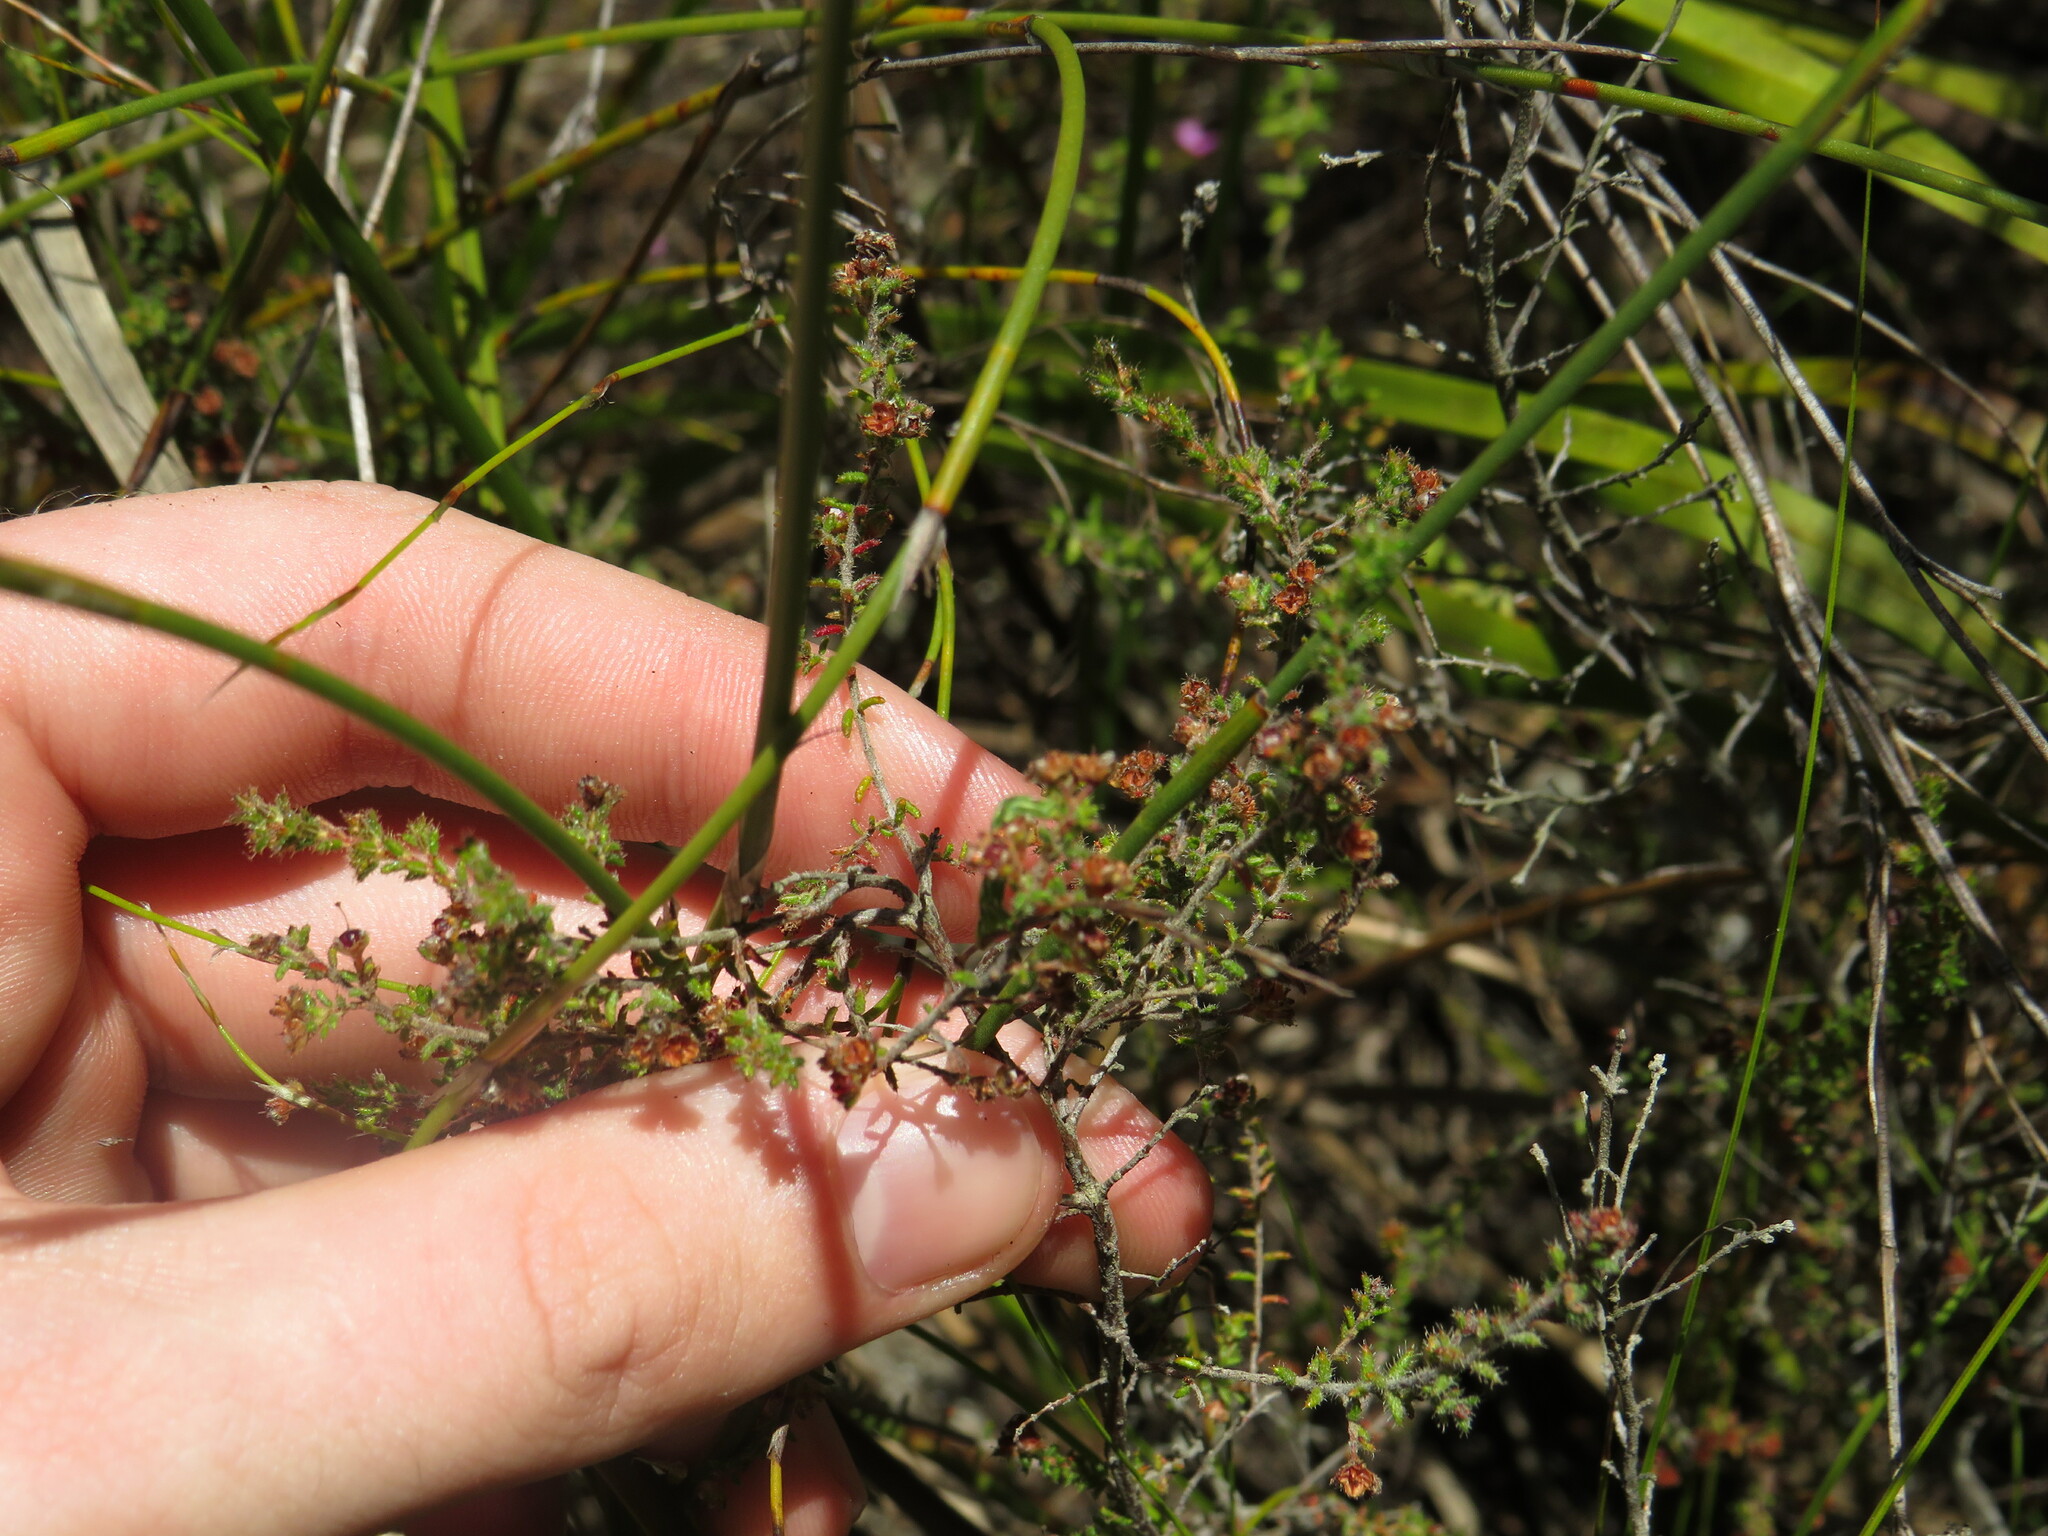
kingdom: Plantae
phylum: Tracheophyta
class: Magnoliopsida
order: Ericales
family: Ericaceae
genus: Erica
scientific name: Erica exleeana
